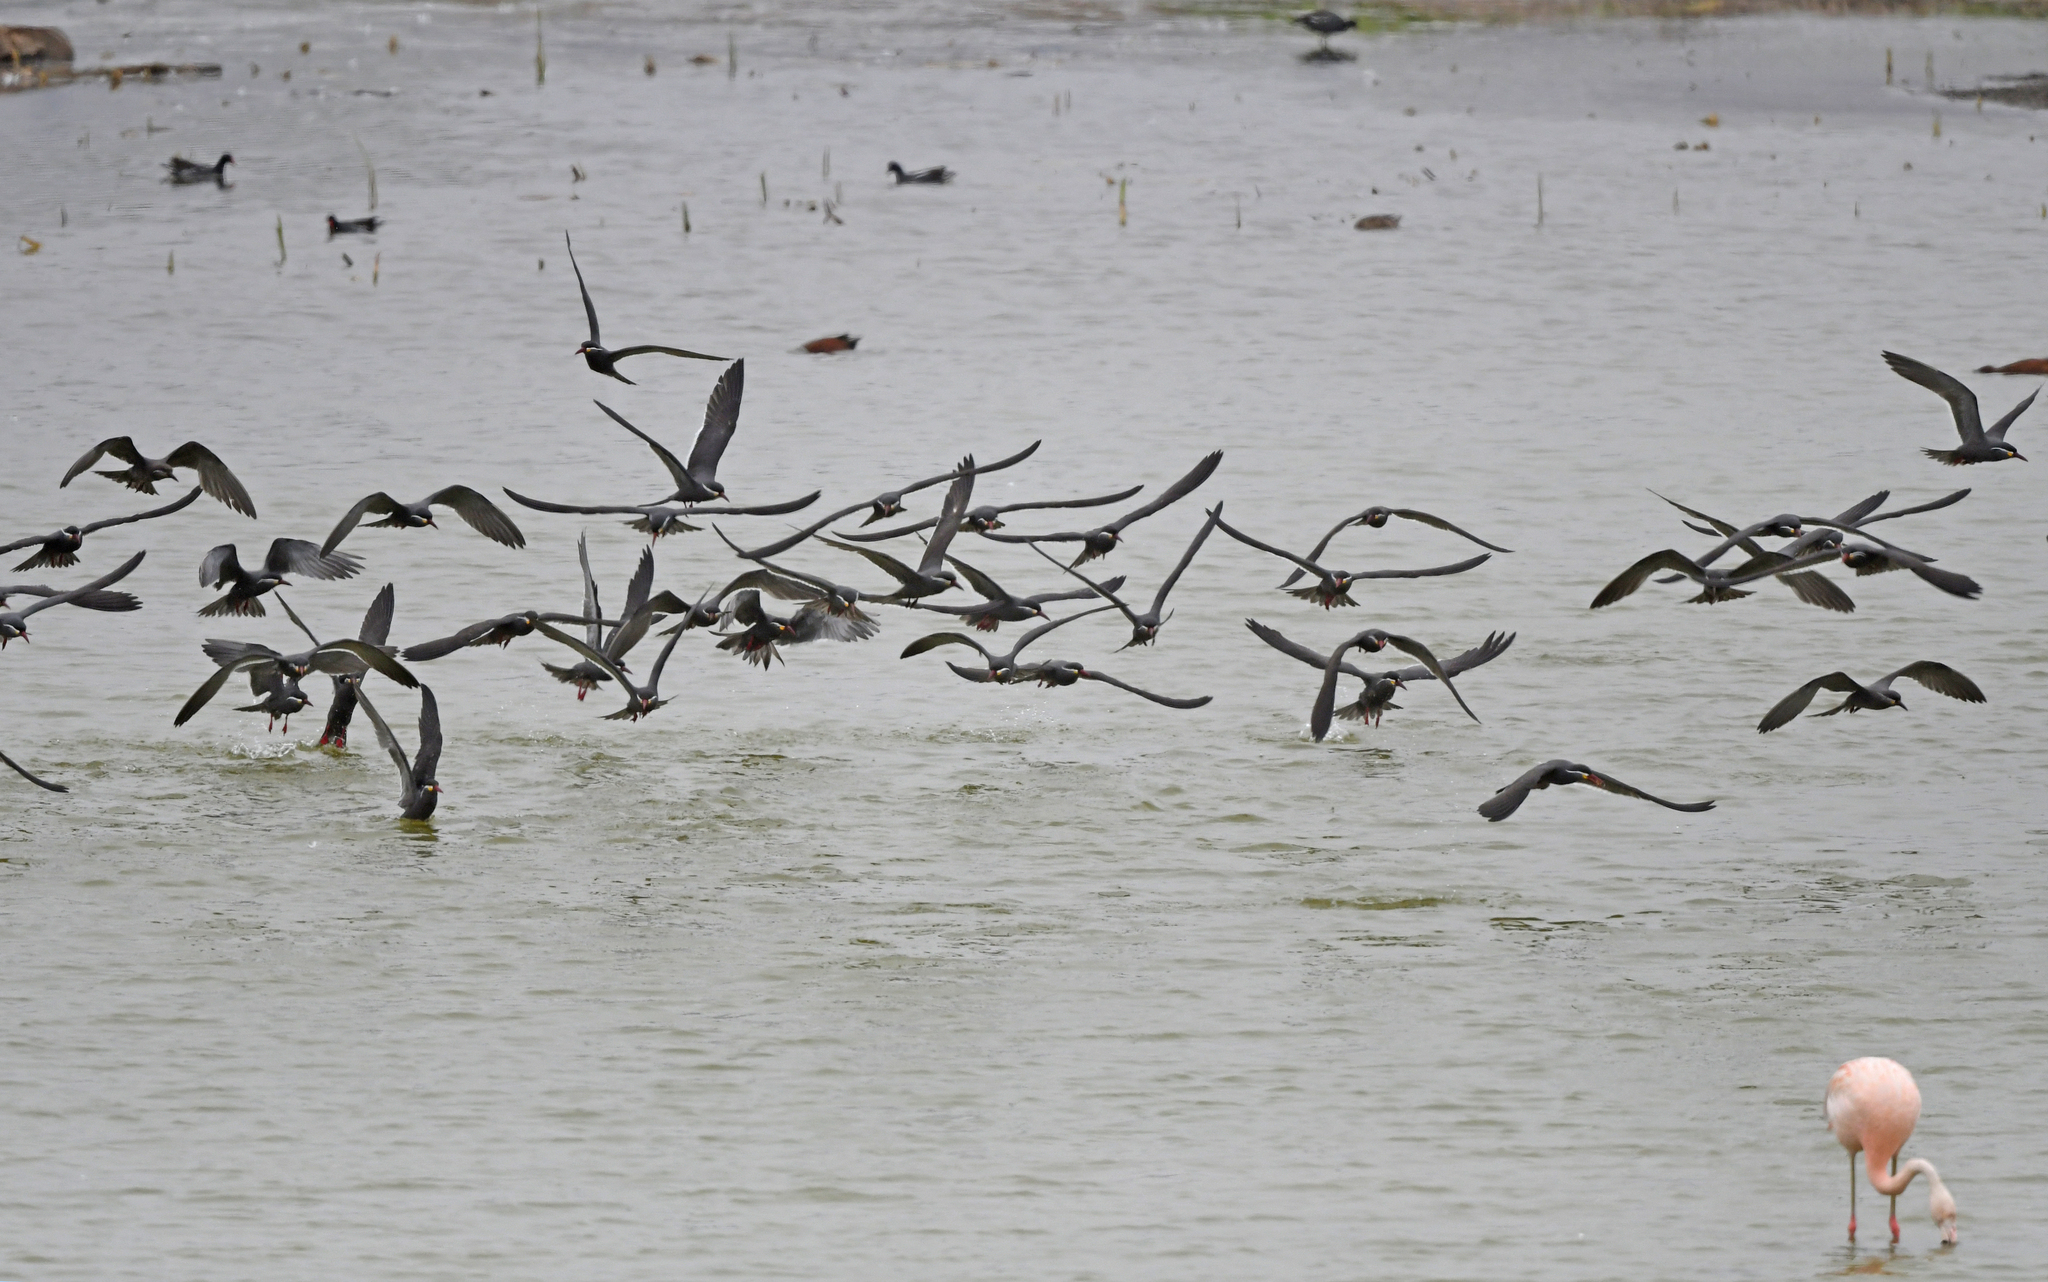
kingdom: Animalia
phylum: Chordata
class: Aves
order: Charadriiformes
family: Laridae
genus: Larosterna
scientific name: Larosterna inca
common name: Inca tern
